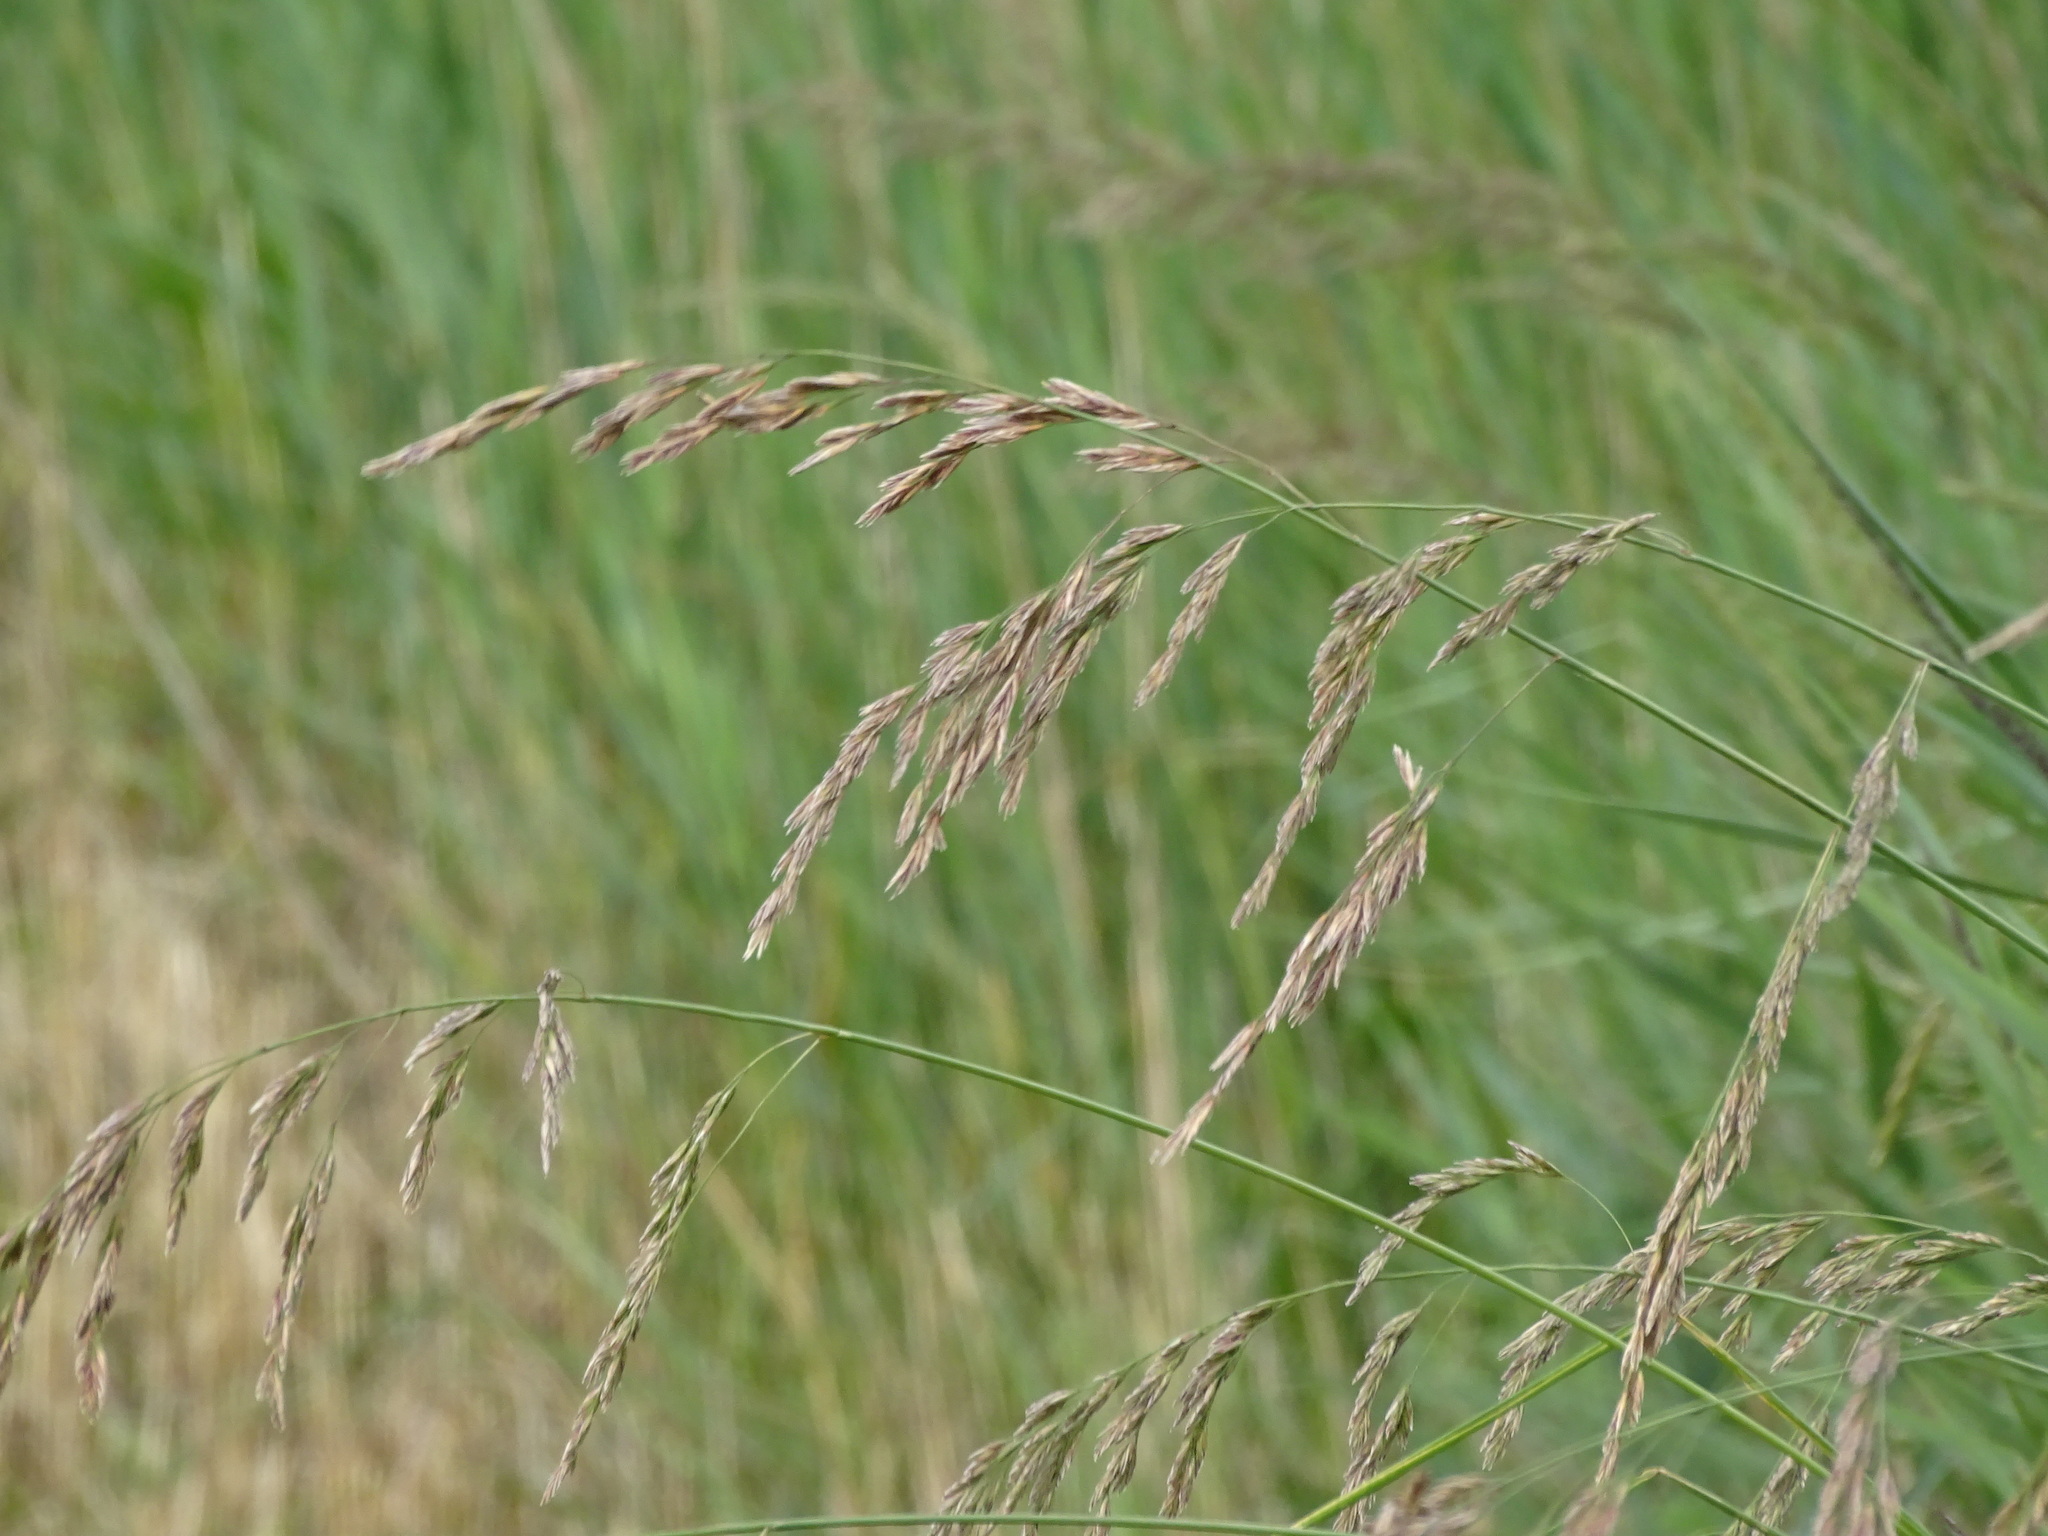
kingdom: Plantae
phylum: Tracheophyta
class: Liliopsida
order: Poales
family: Poaceae
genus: Lolium
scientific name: Lolium arundinaceum
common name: Reed fescue
